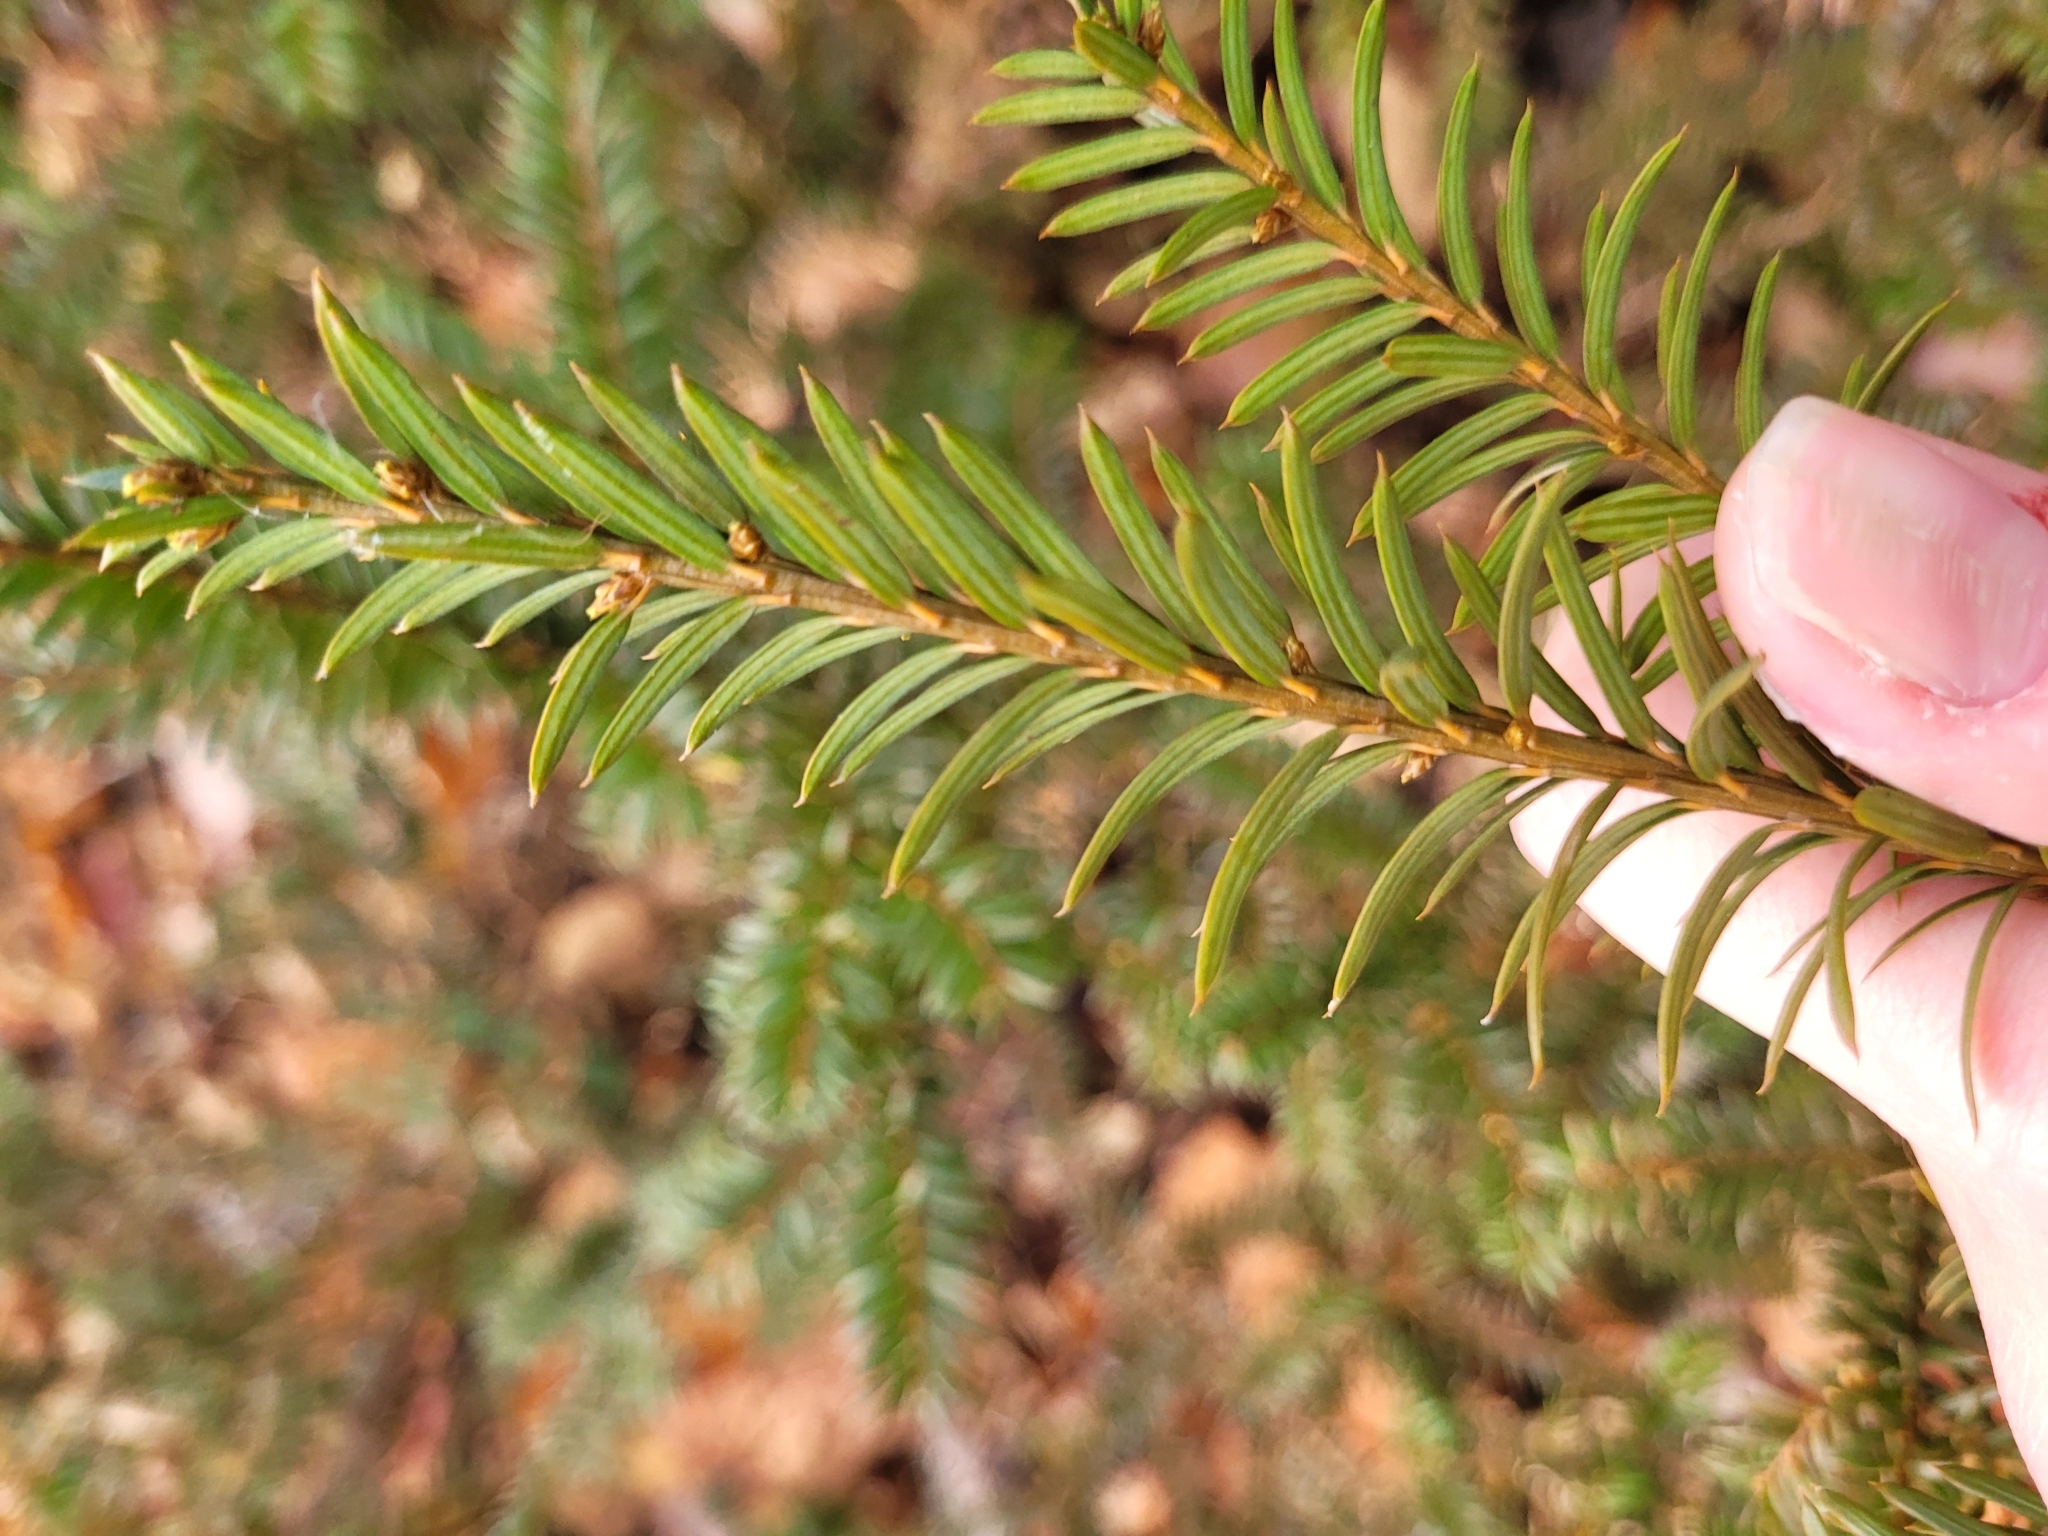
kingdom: Plantae
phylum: Tracheophyta
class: Pinopsida
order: Pinales
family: Taxaceae
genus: Taxus
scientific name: Taxus canadensis
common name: American yew
